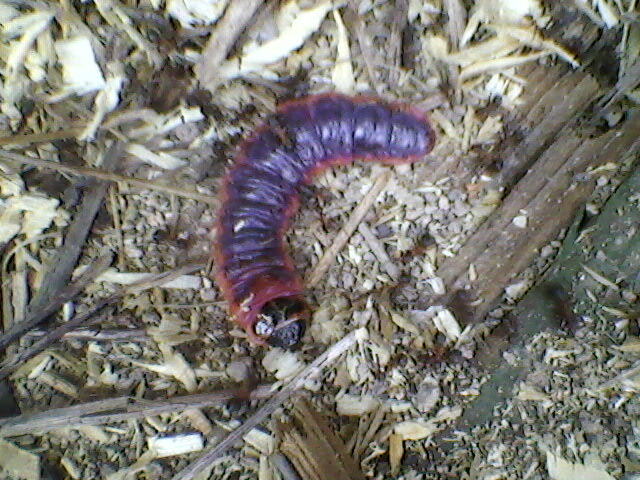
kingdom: Animalia
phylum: Arthropoda
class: Insecta
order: Lepidoptera
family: Cossidae
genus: Cossus
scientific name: Cossus cossus
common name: Goat moth
